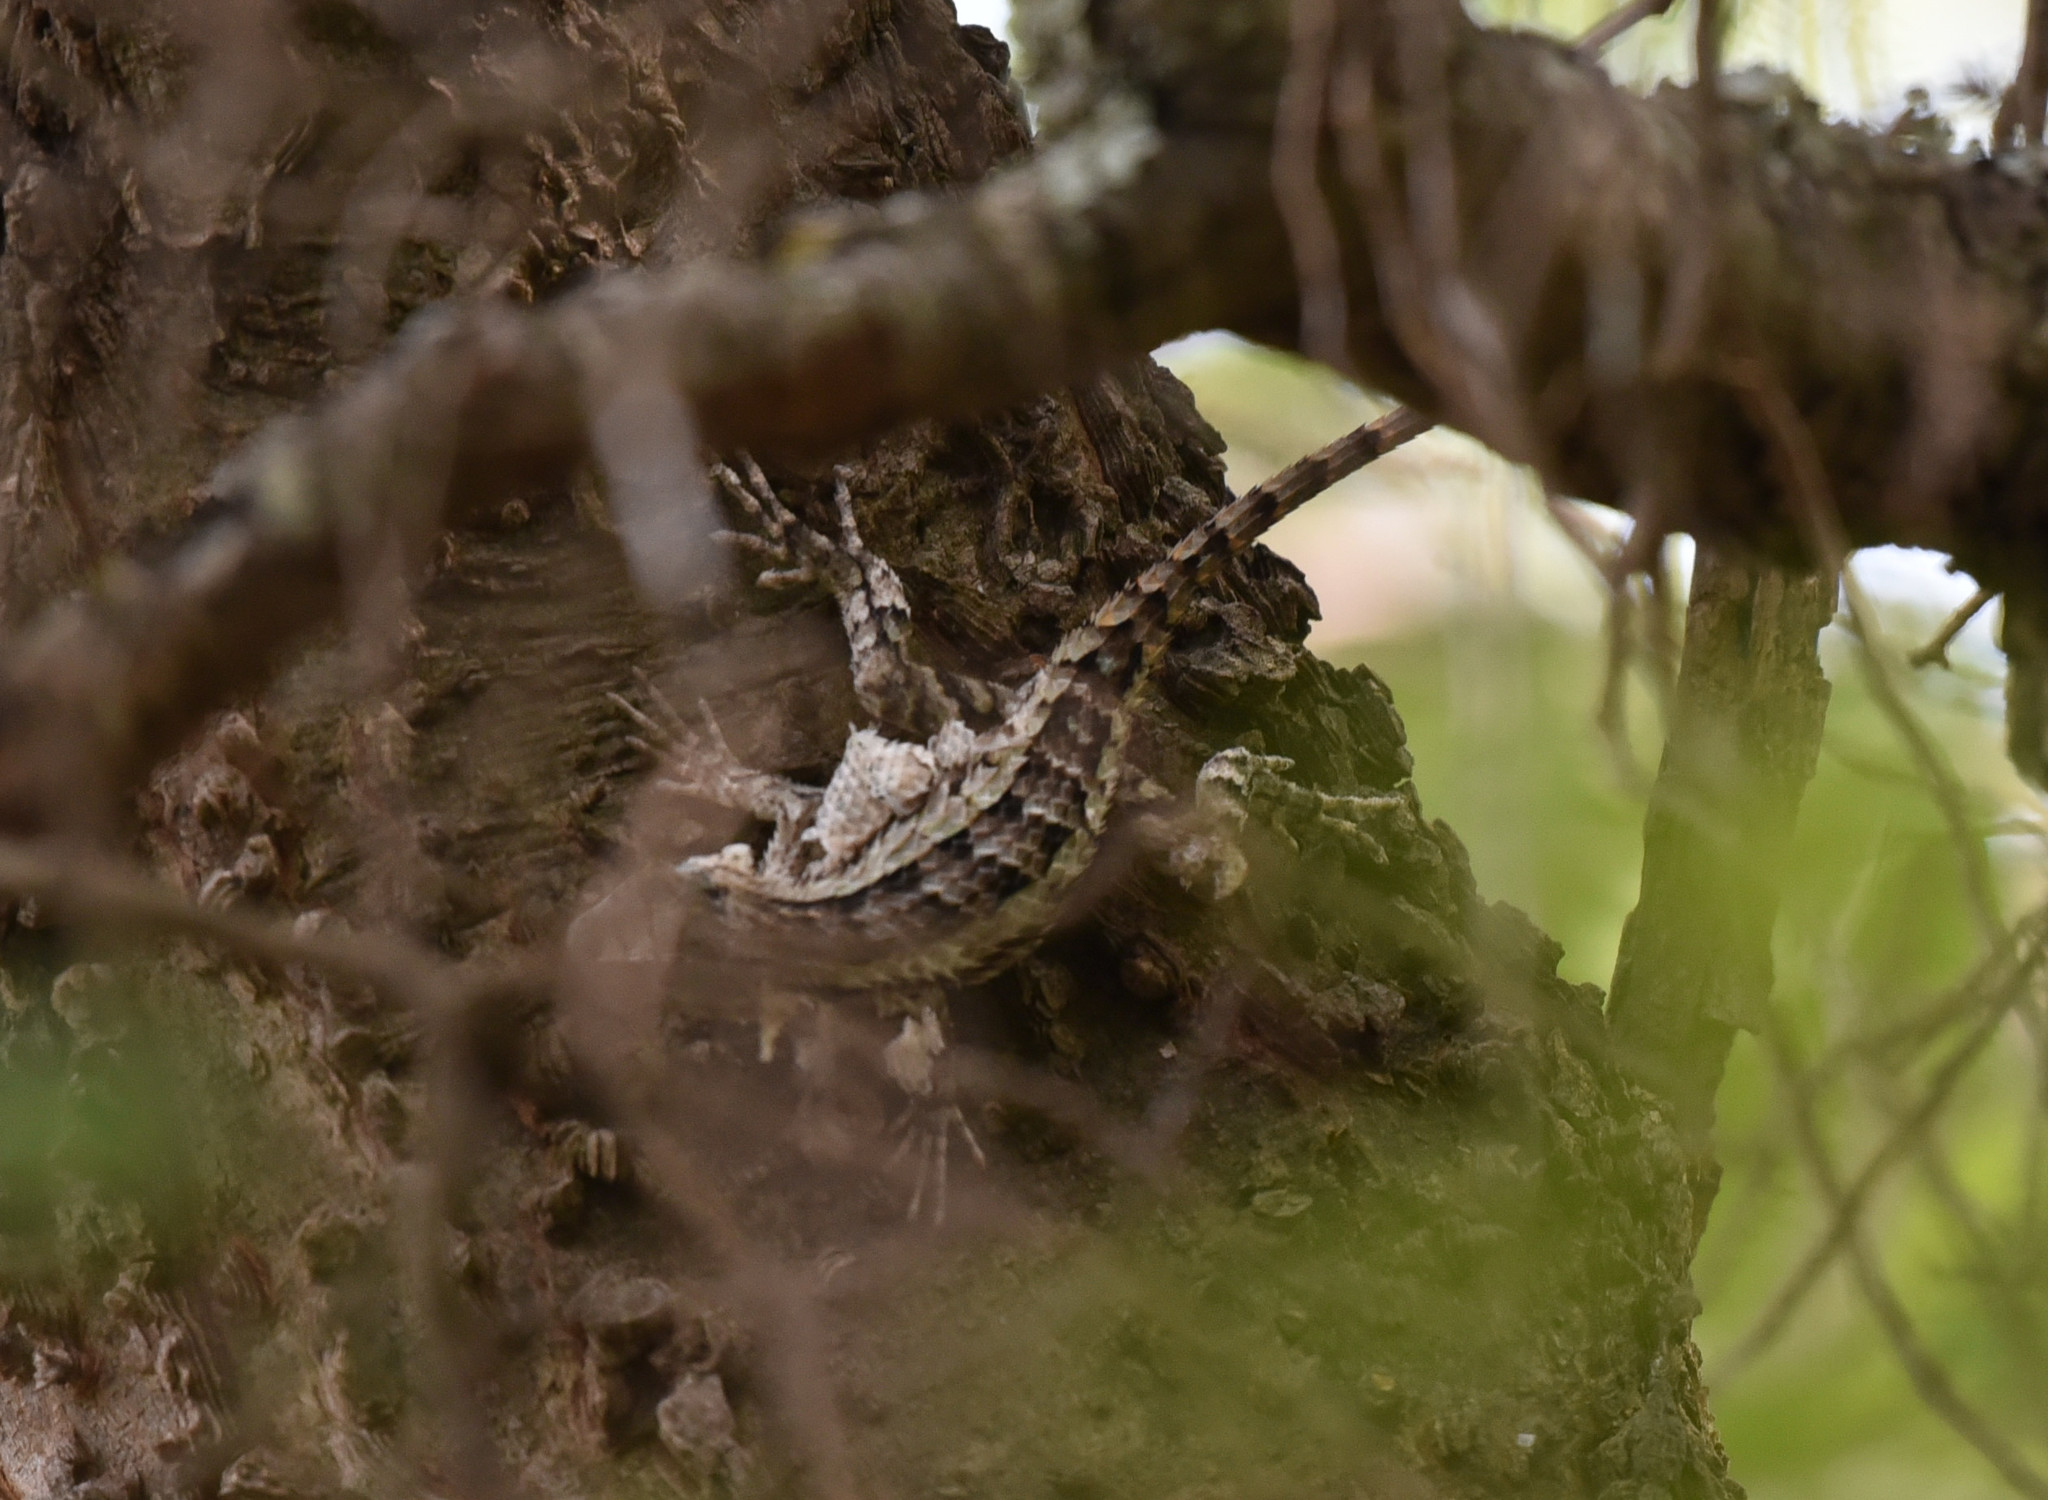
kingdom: Animalia
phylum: Chordata
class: Squamata
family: Phrynosomatidae
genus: Sceloporus
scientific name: Sceloporus olivaceus
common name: Texas spiny lizard
